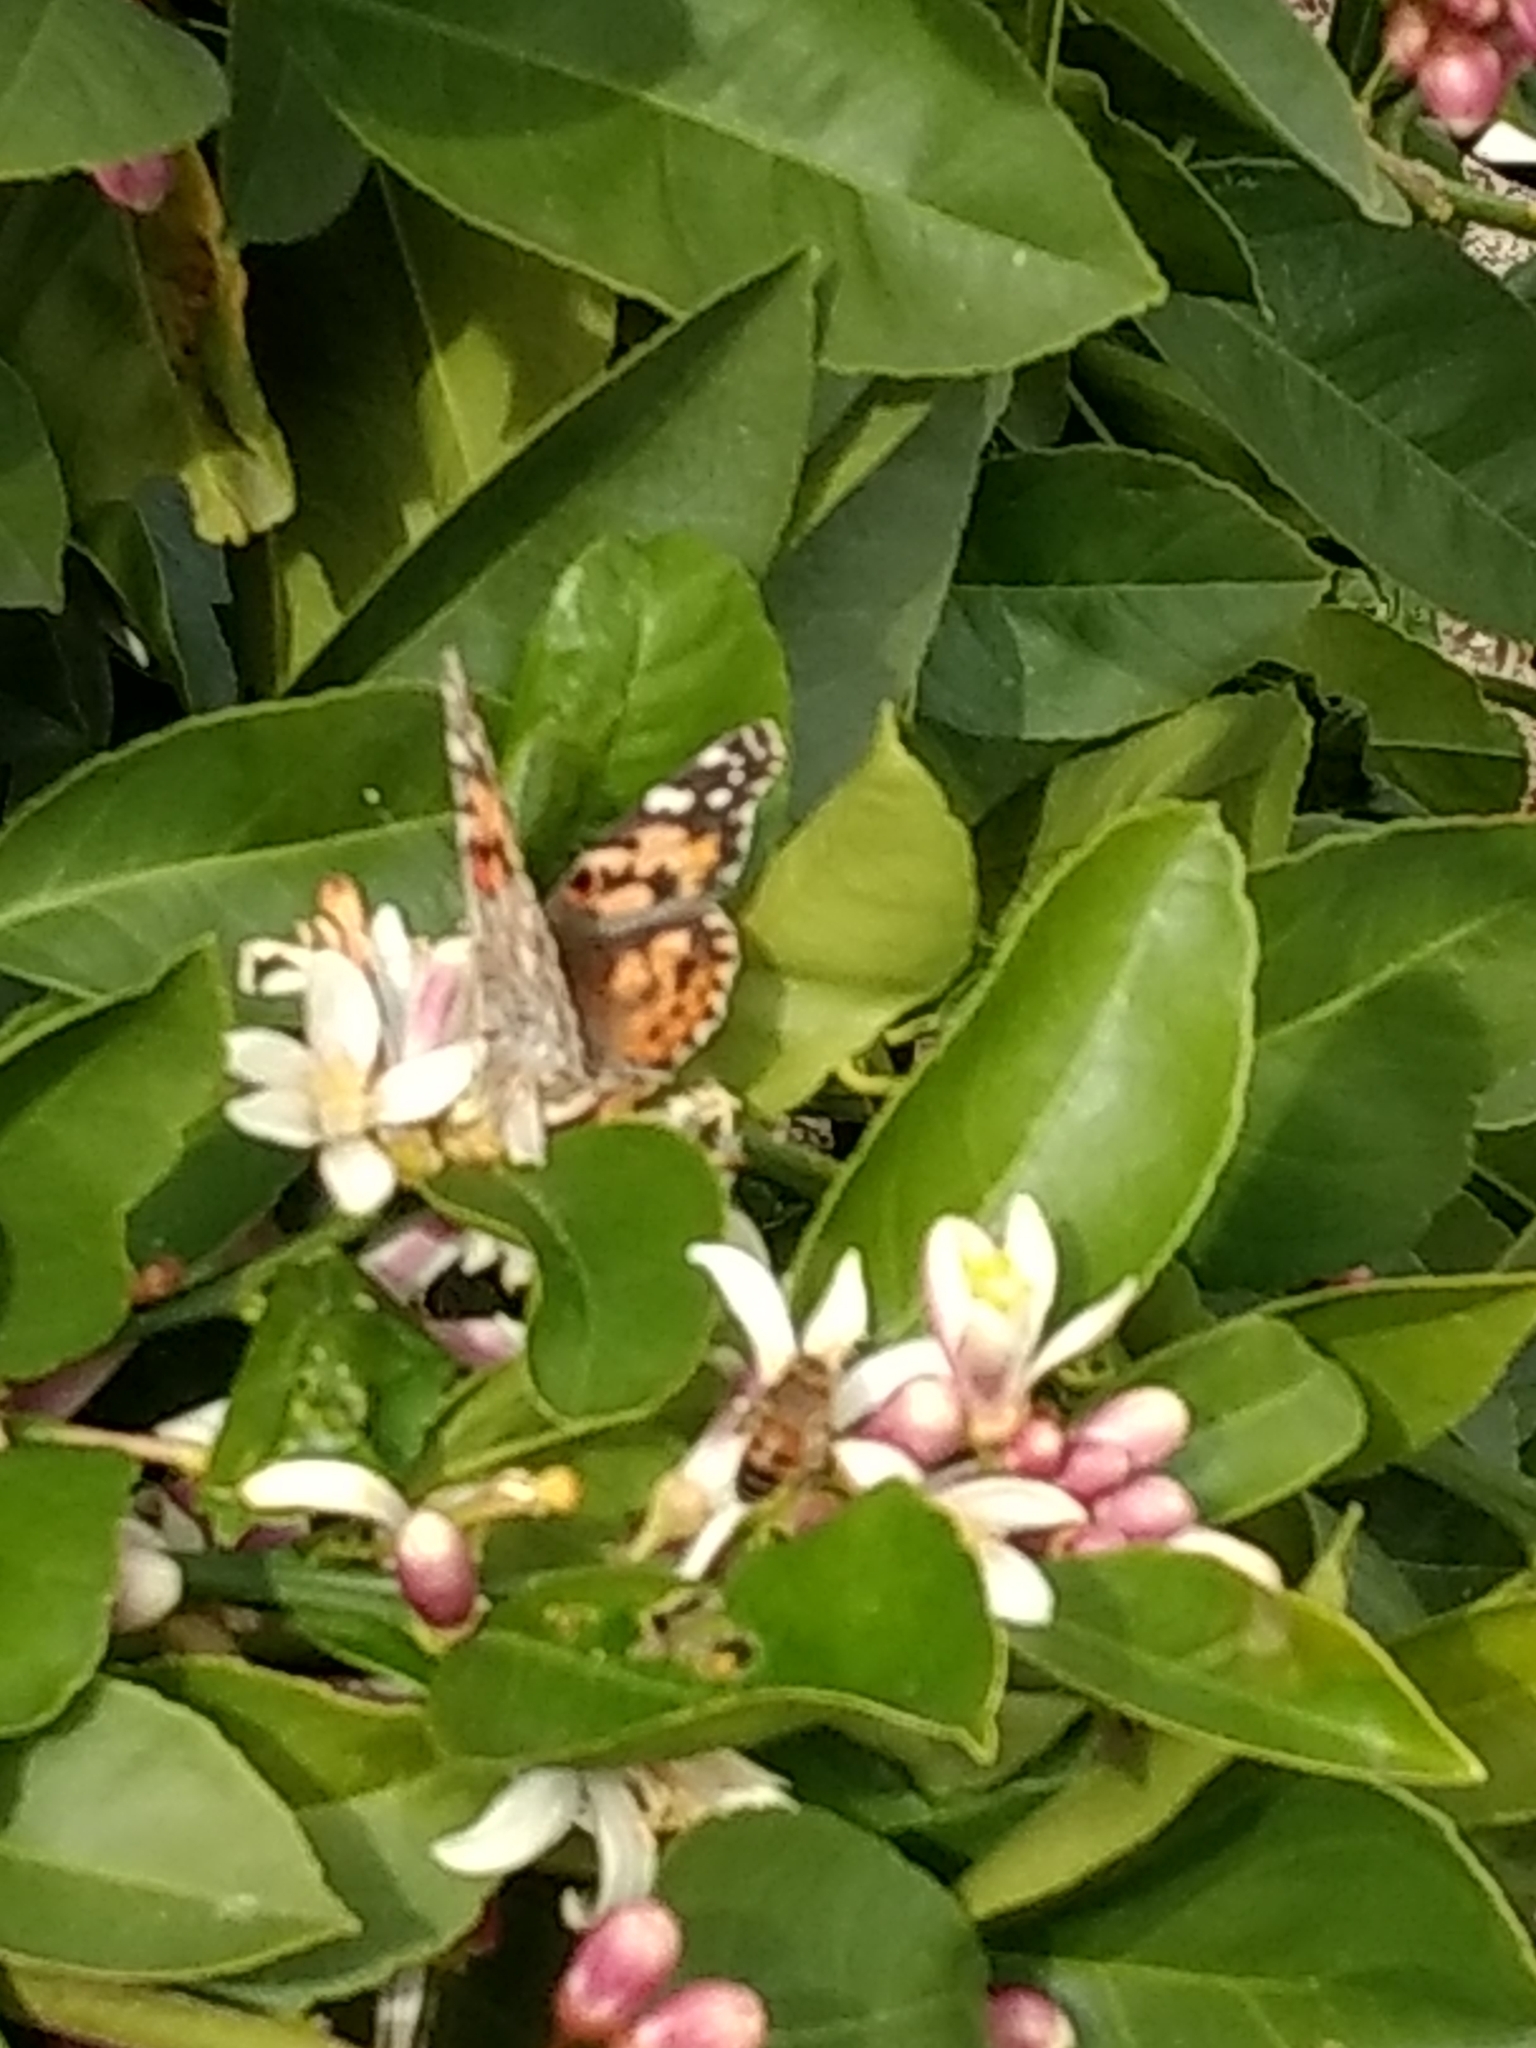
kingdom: Animalia
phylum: Arthropoda
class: Insecta
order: Lepidoptera
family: Nymphalidae
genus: Vanessa
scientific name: Vanessa cardui
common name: Painted lady
